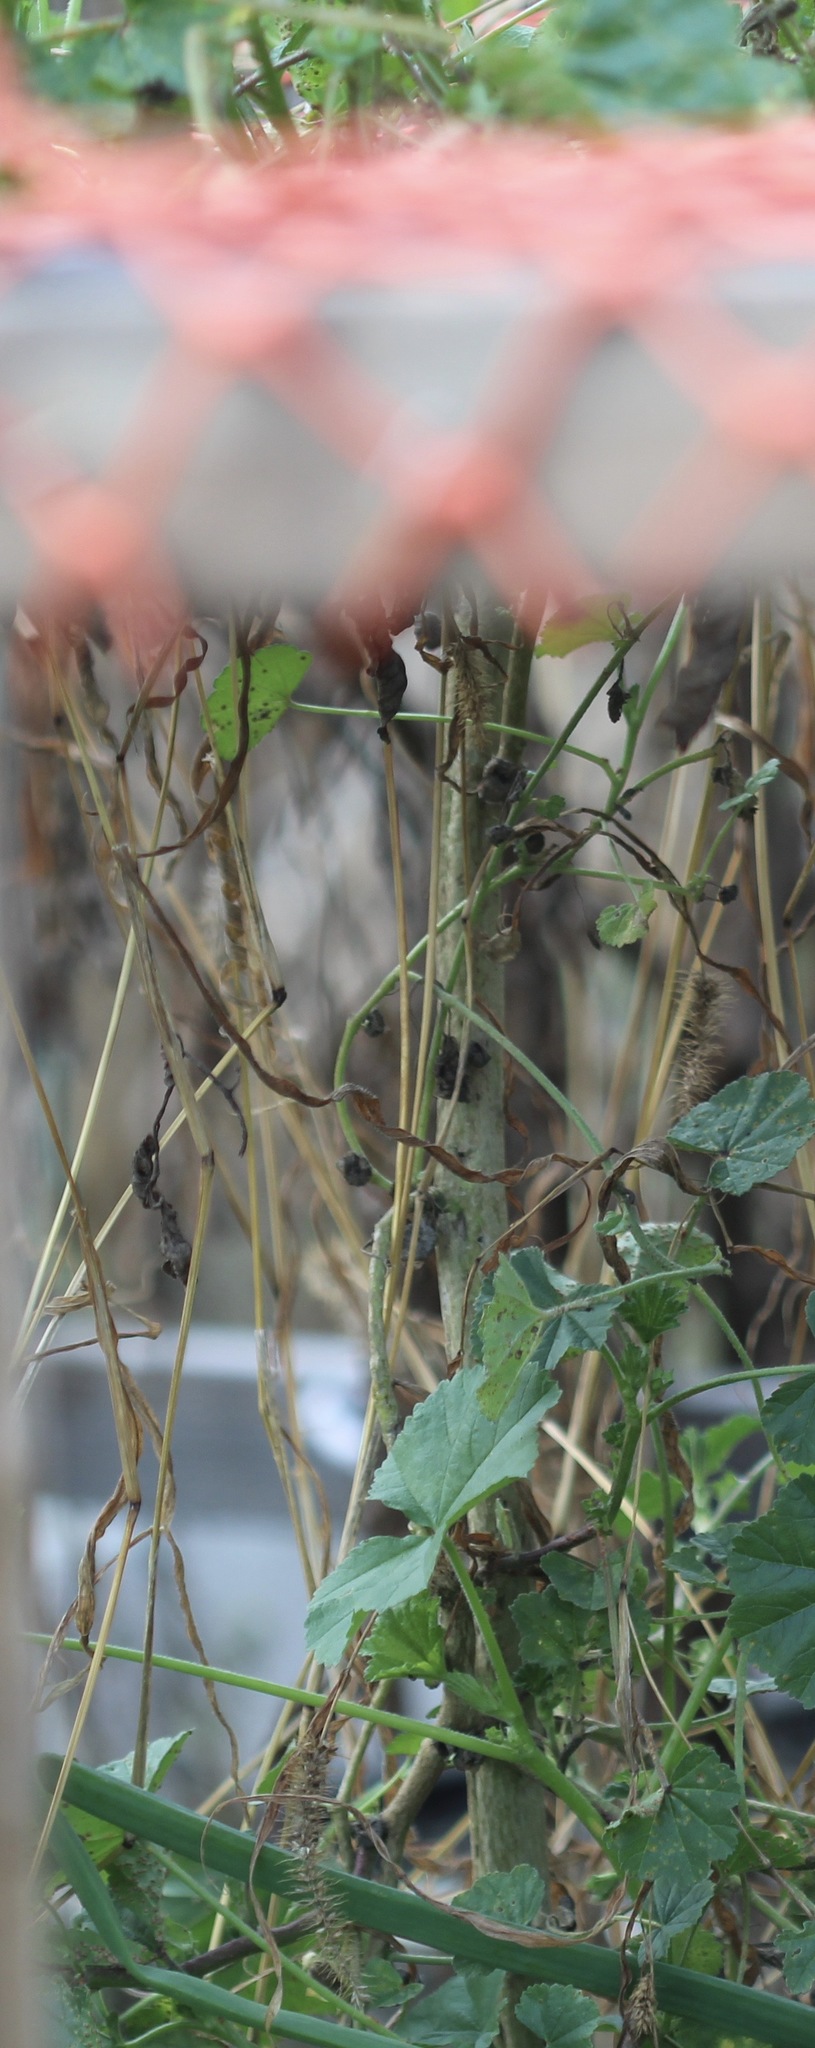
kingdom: Plantae
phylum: Tracheophyta
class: Magnoliopsida
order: Malvales
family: Malvaceae
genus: Malva
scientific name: Malva
